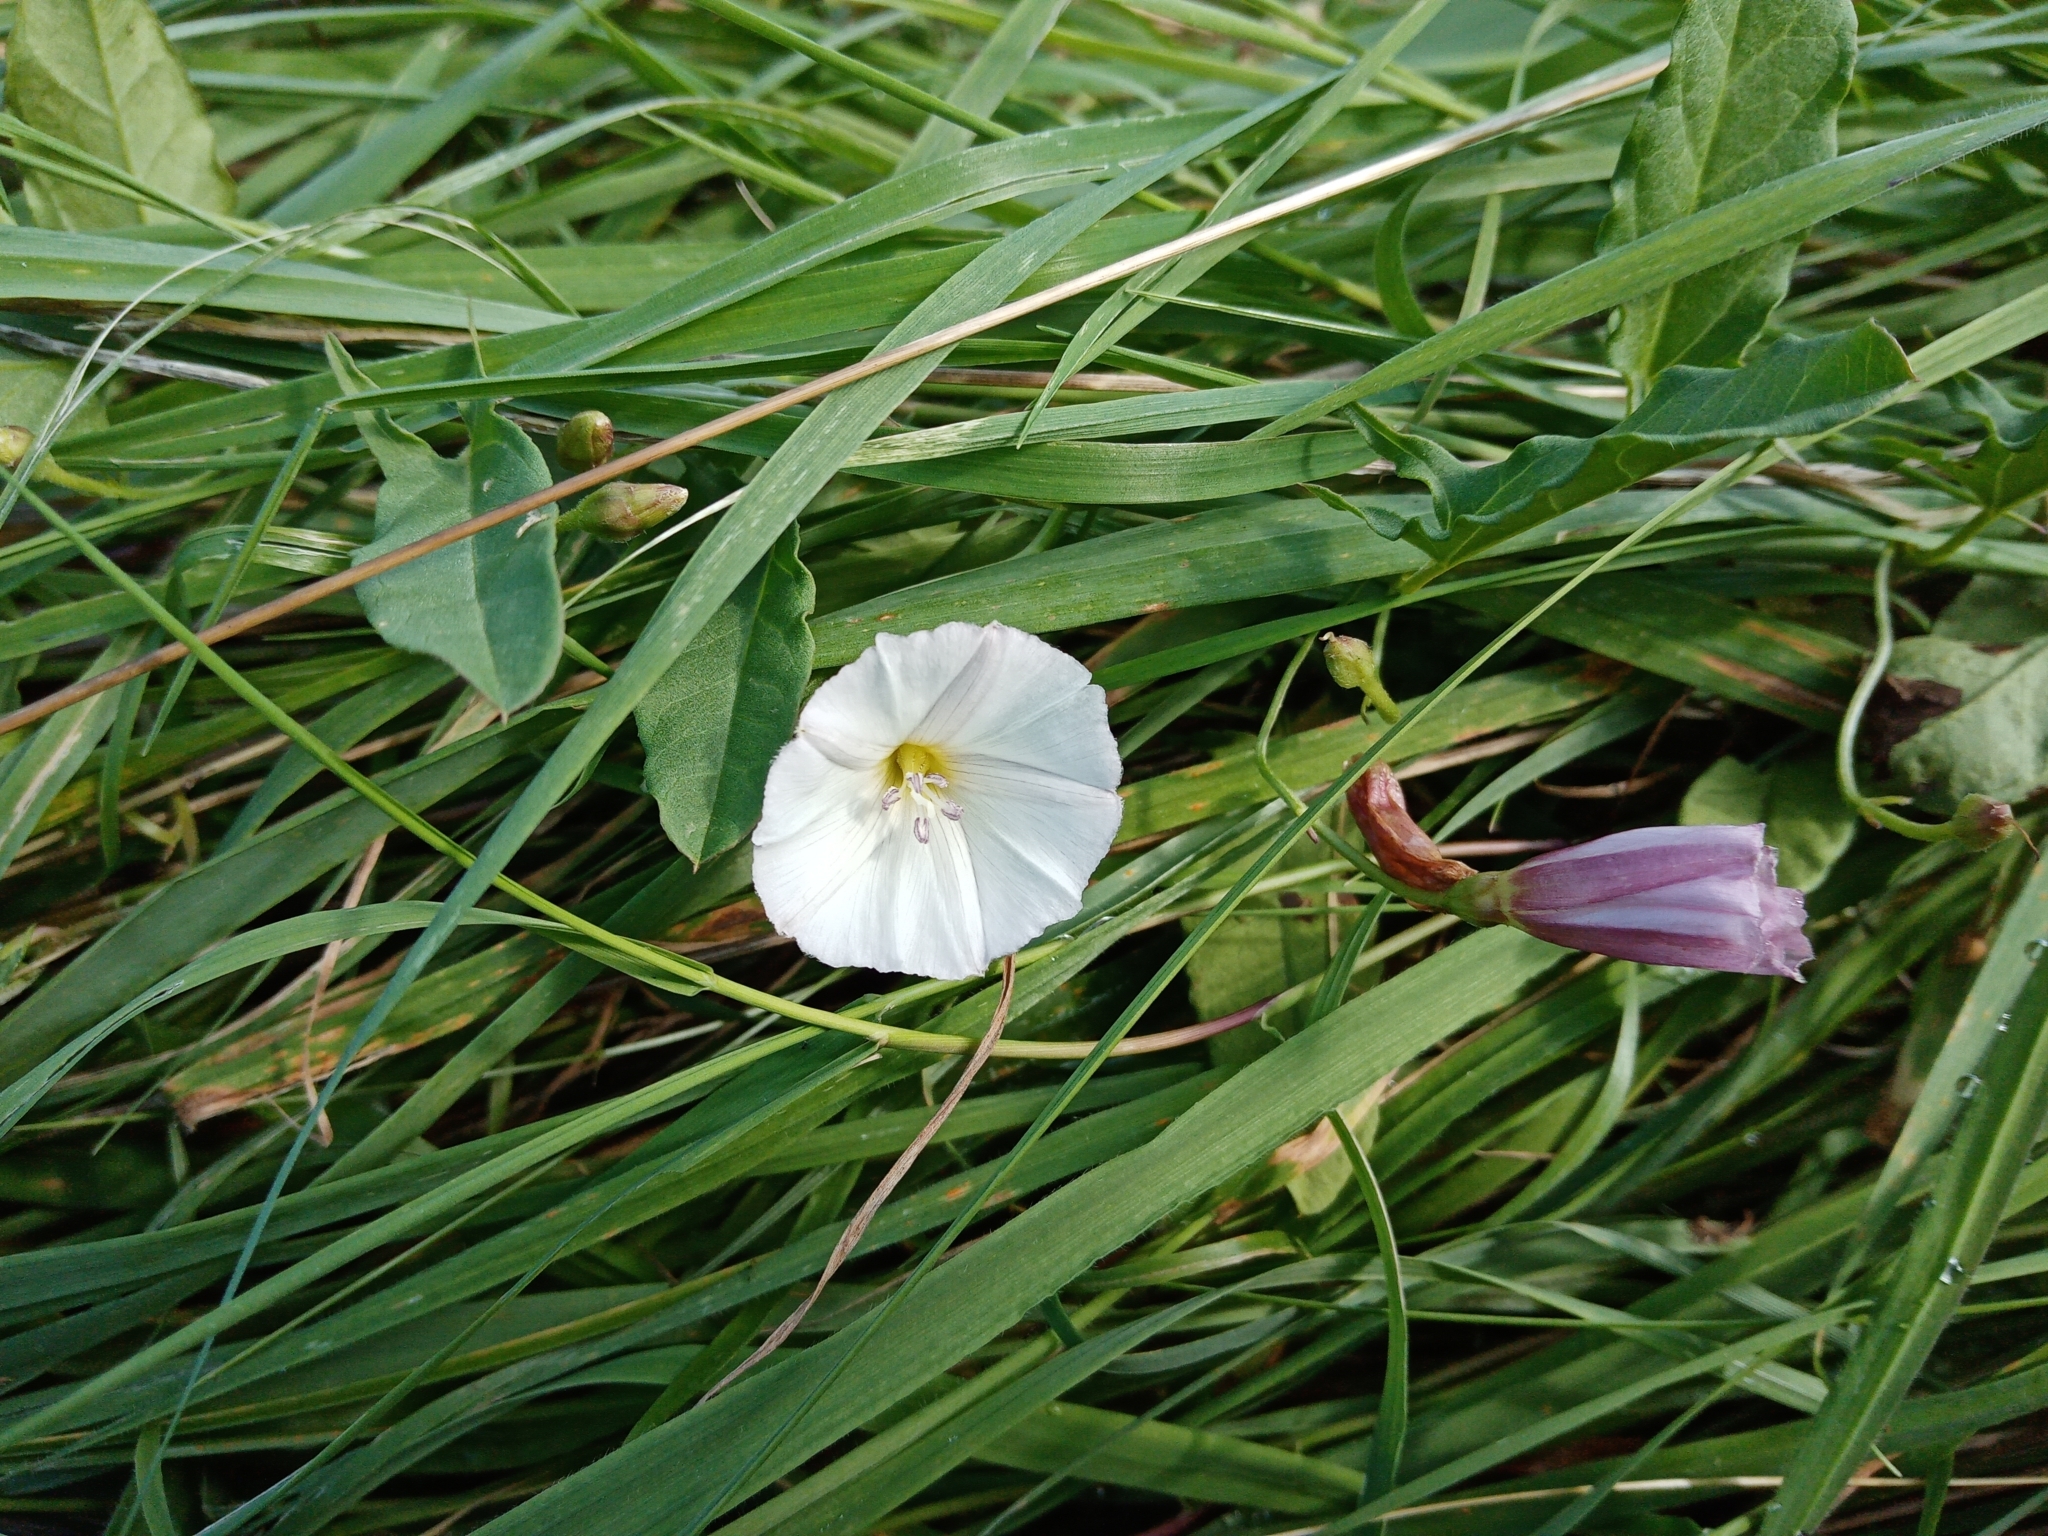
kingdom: Plantae
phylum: Tracheophyta
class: Magnoliopsida
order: Solanales
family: Convolvulaceae
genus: Convolvulus
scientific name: Convolvulus arvensis
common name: Field bindweed
